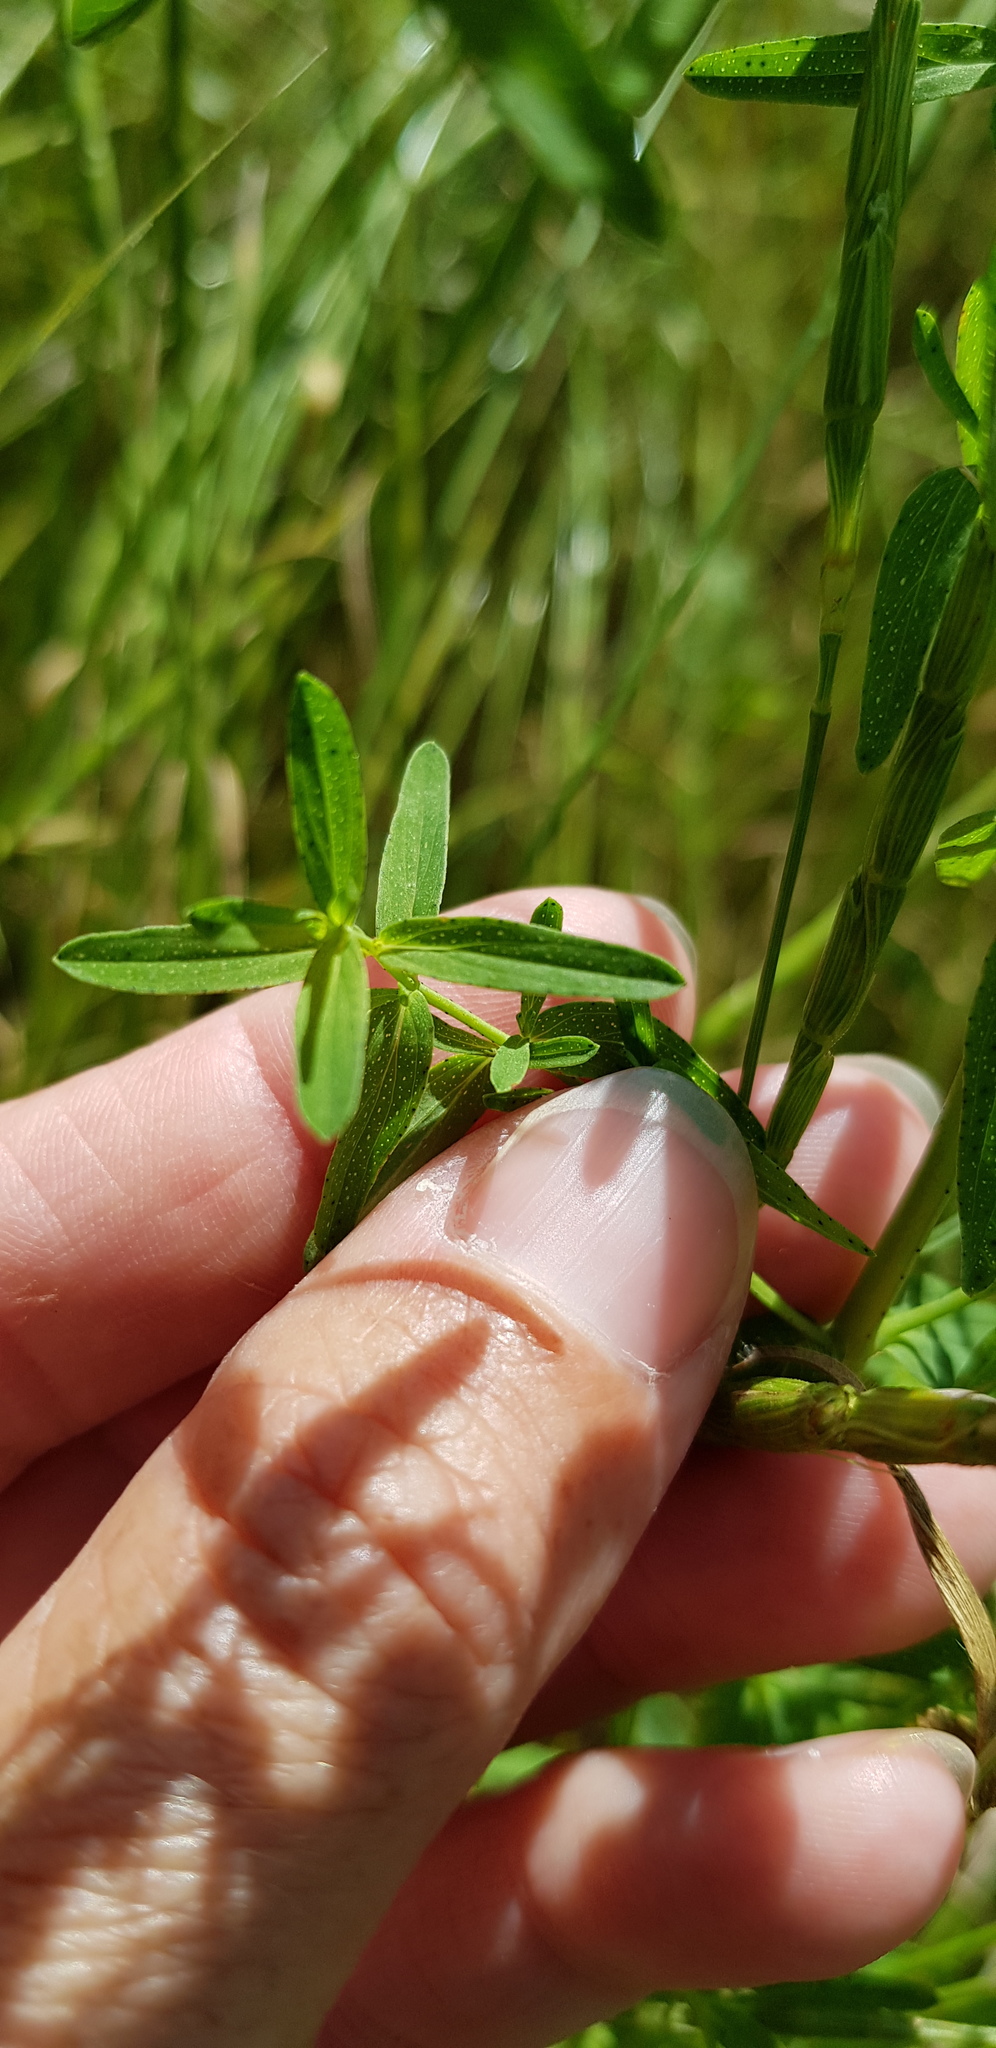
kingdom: Plantae
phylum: Tracheophyta
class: Magnoliopsida
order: Malpighiales
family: Hypericaceae
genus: Hypericum
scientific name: Hypericum perforatum
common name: Common st. johnswort
